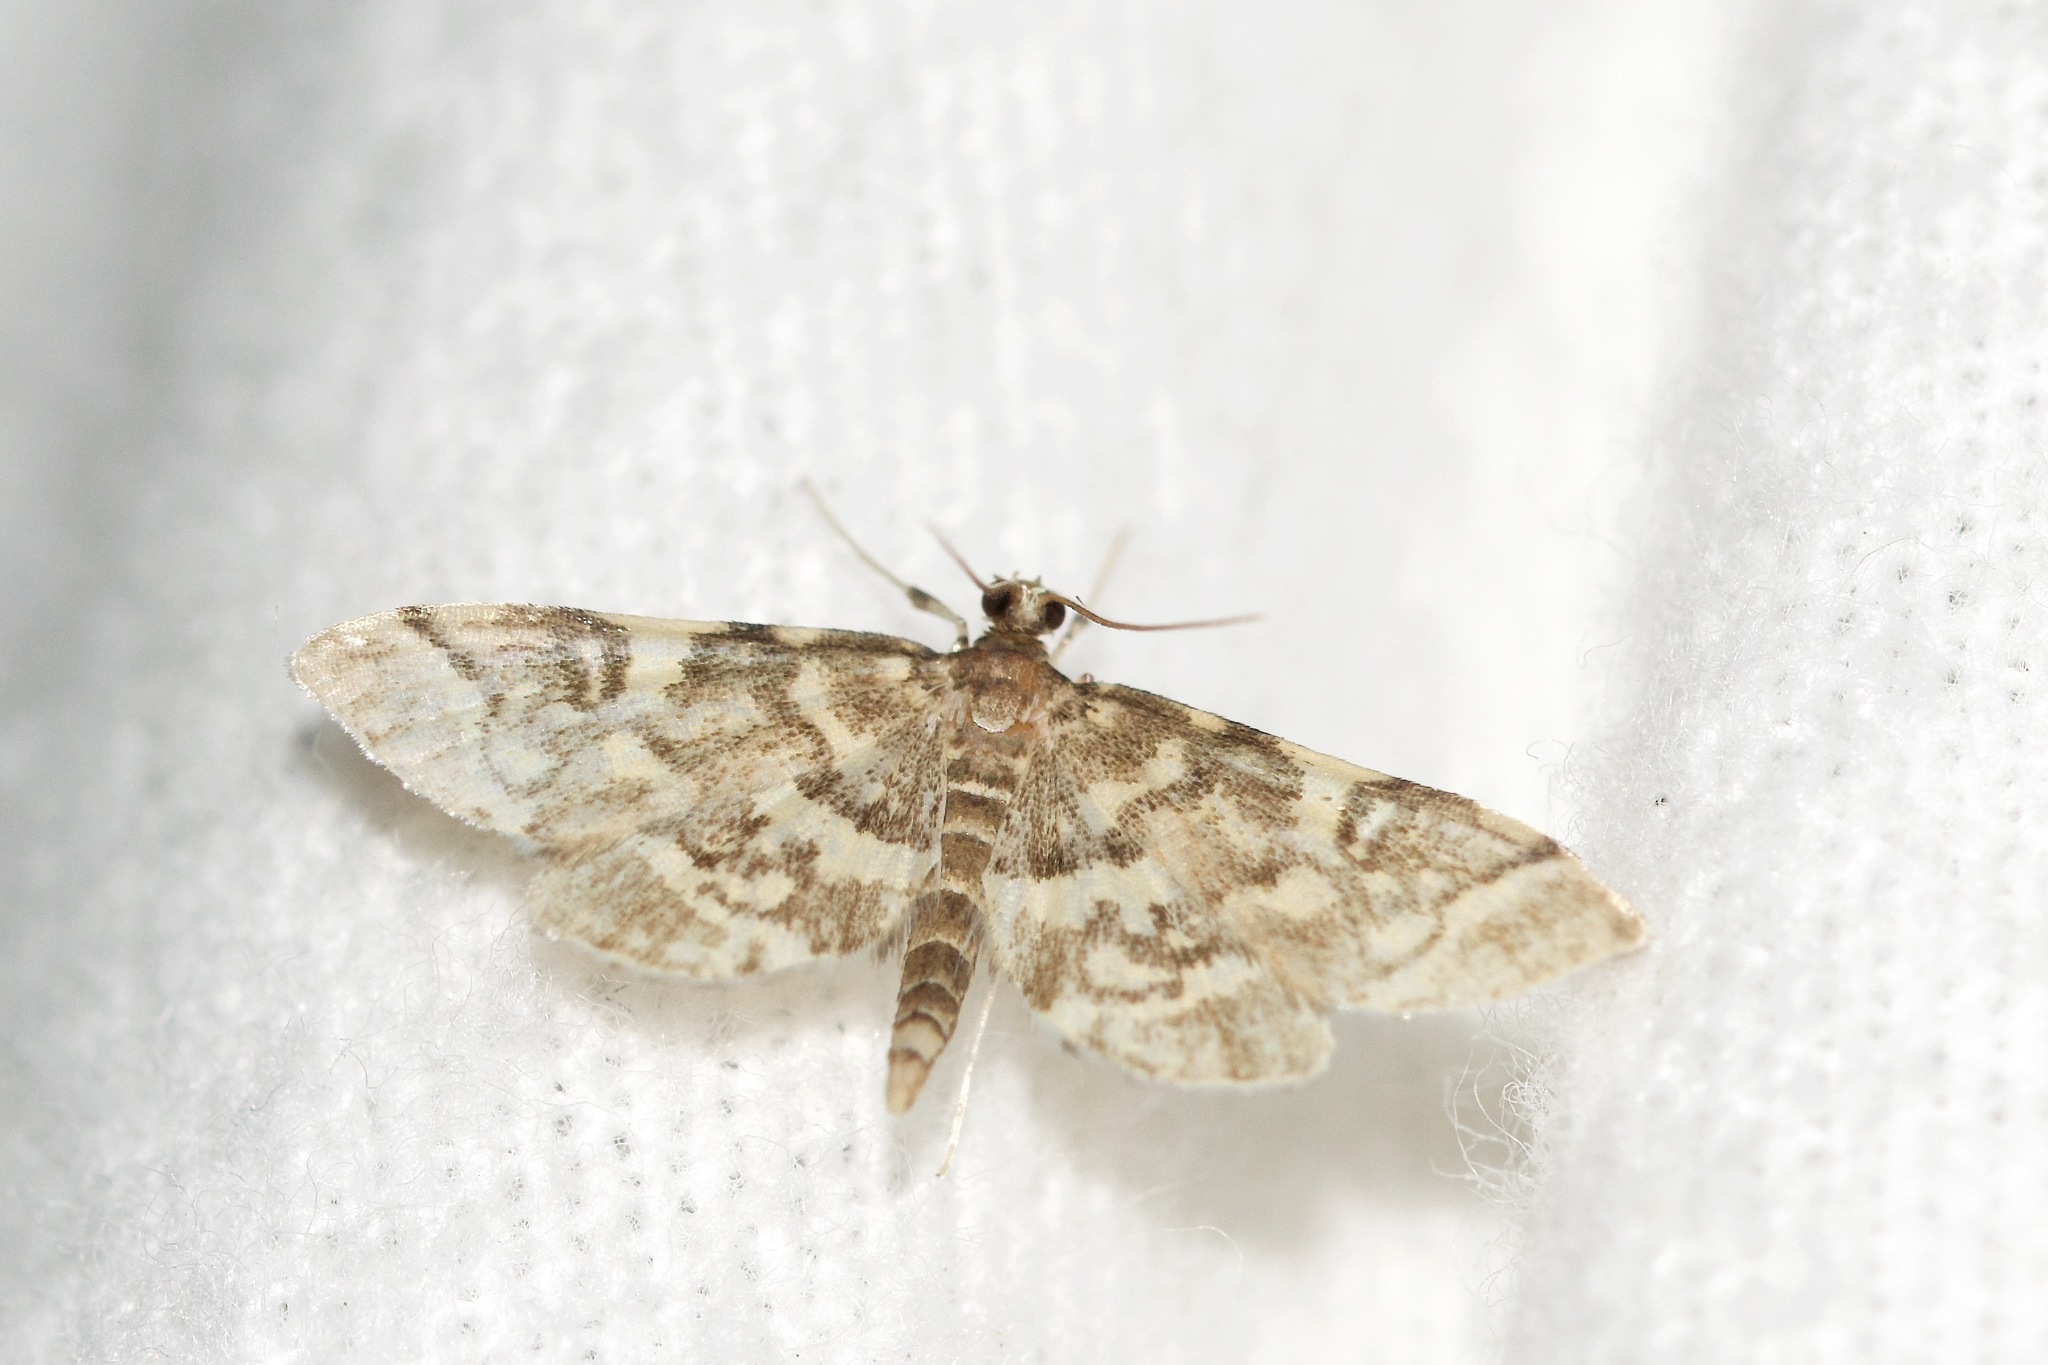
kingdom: Animalia
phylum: Arthropoda
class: Insecta
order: Lepidoptera
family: Crambidae
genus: Anageshna
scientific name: Anageshna primordialis
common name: Yellow-spotted webworm moth
